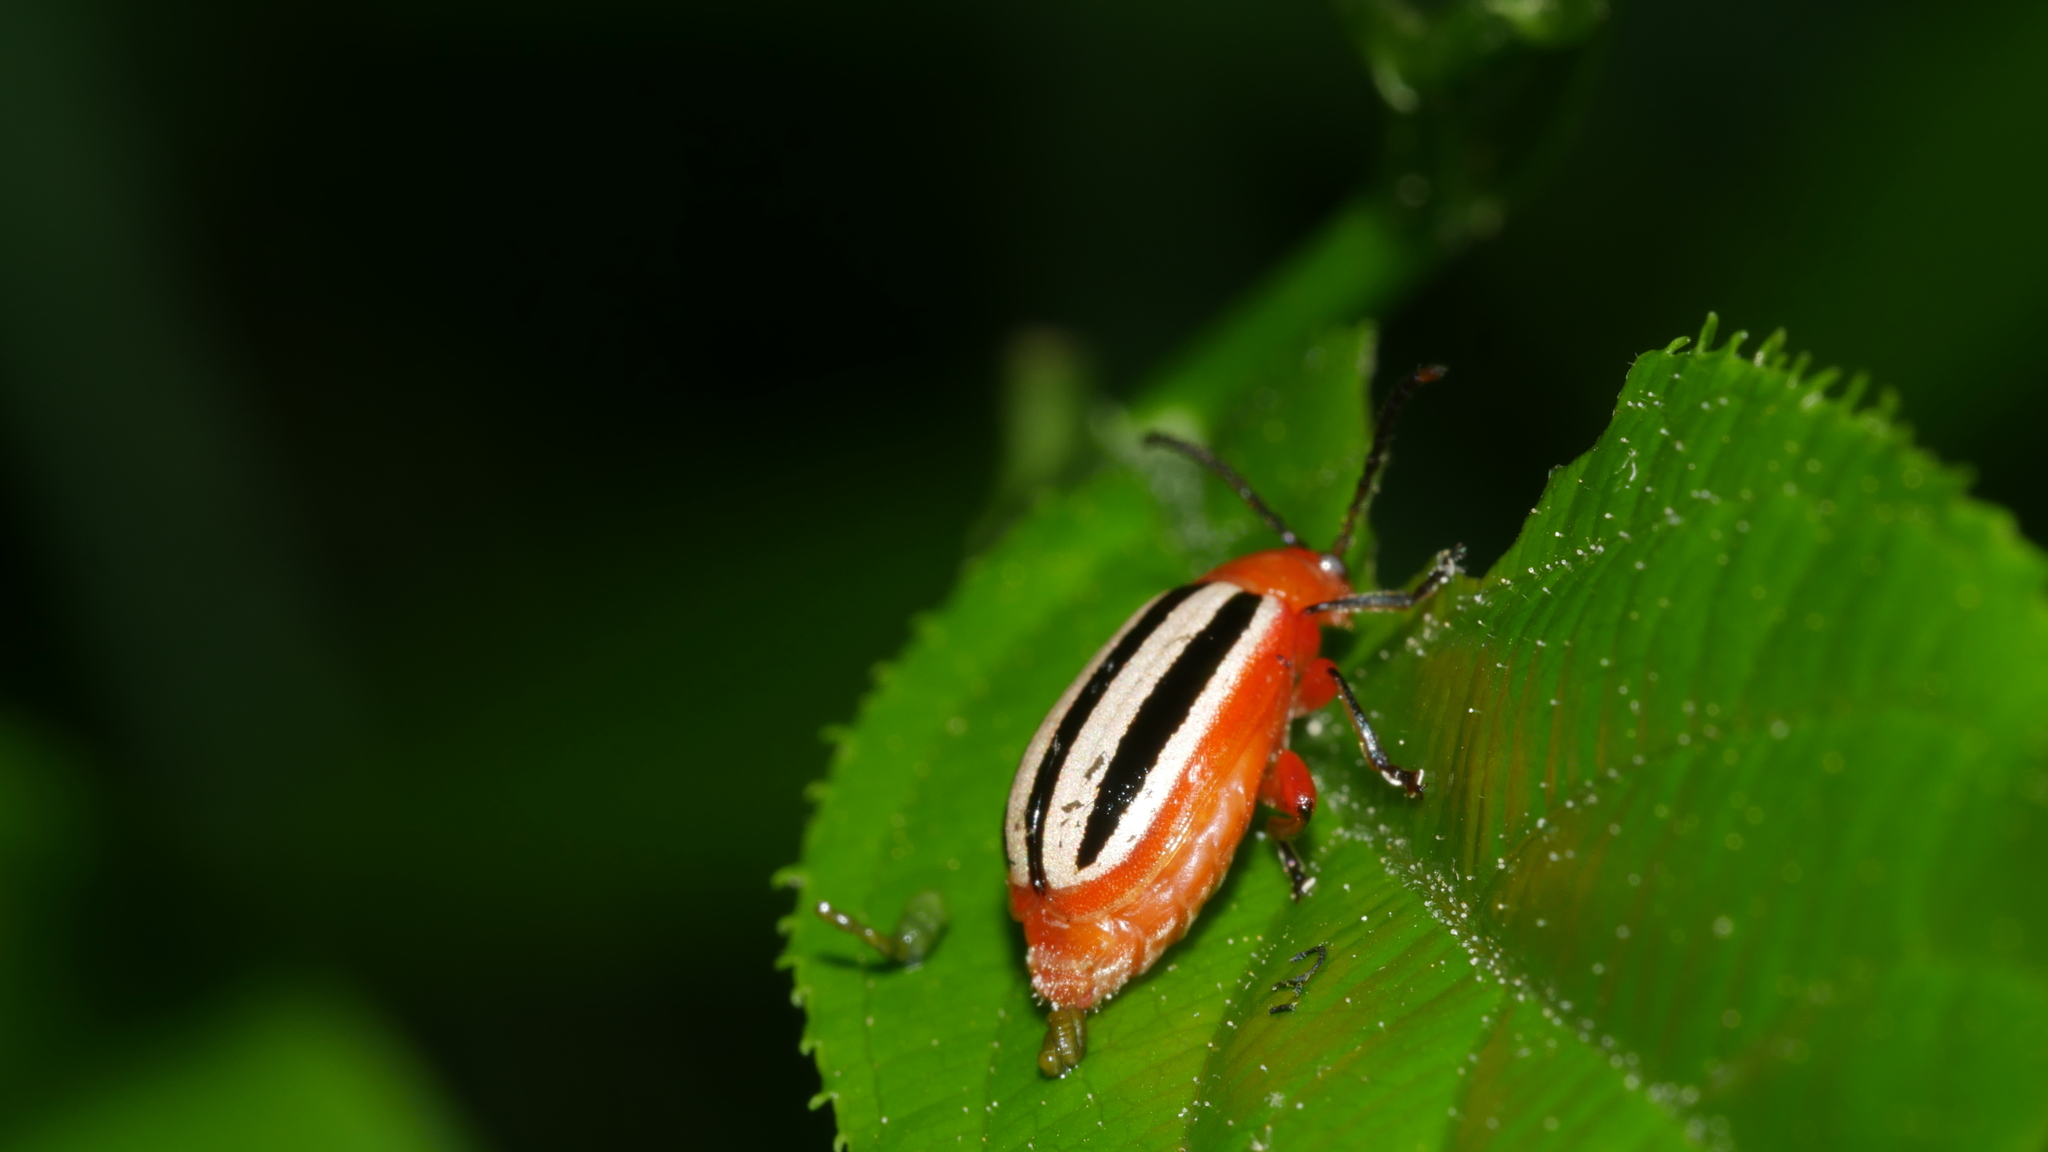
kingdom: Animalia
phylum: Arthropoda
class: Insecta
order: Coleoptera
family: Chrysomelidae
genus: Disonycha
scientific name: Disonycha discoidea
